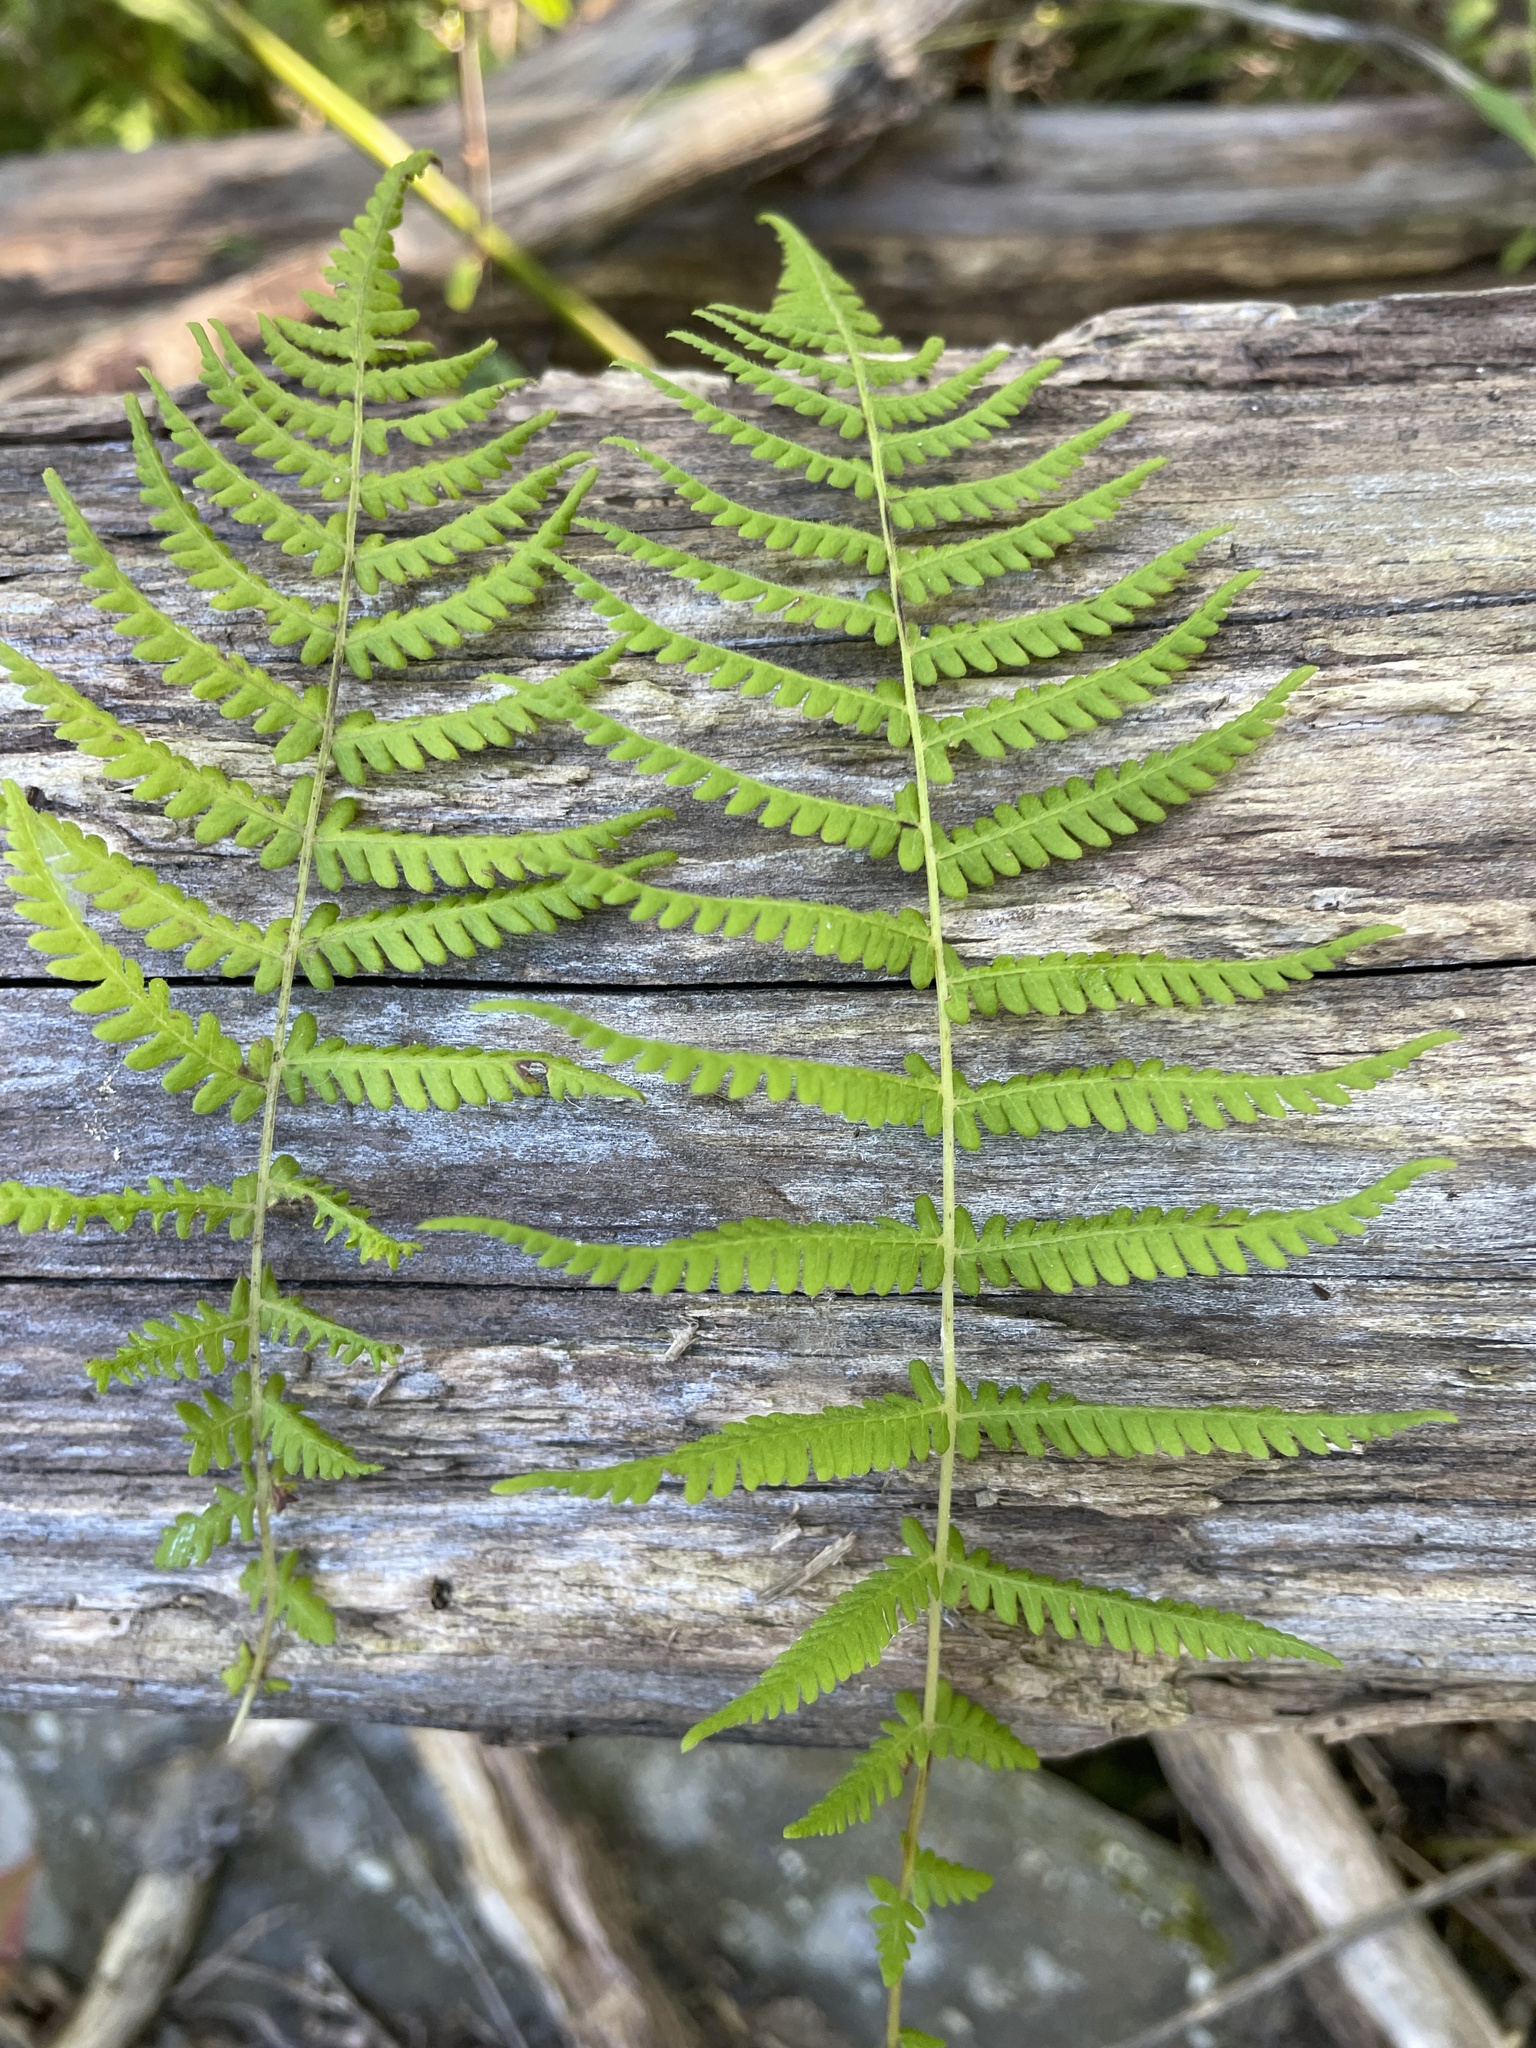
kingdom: Plantae
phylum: Tracheophyta
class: Polypodiopsida
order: Polypodiales
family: Thelypteridaceae
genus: Amauropelta
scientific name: Amauropelta noveboracensis
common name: New york fern
